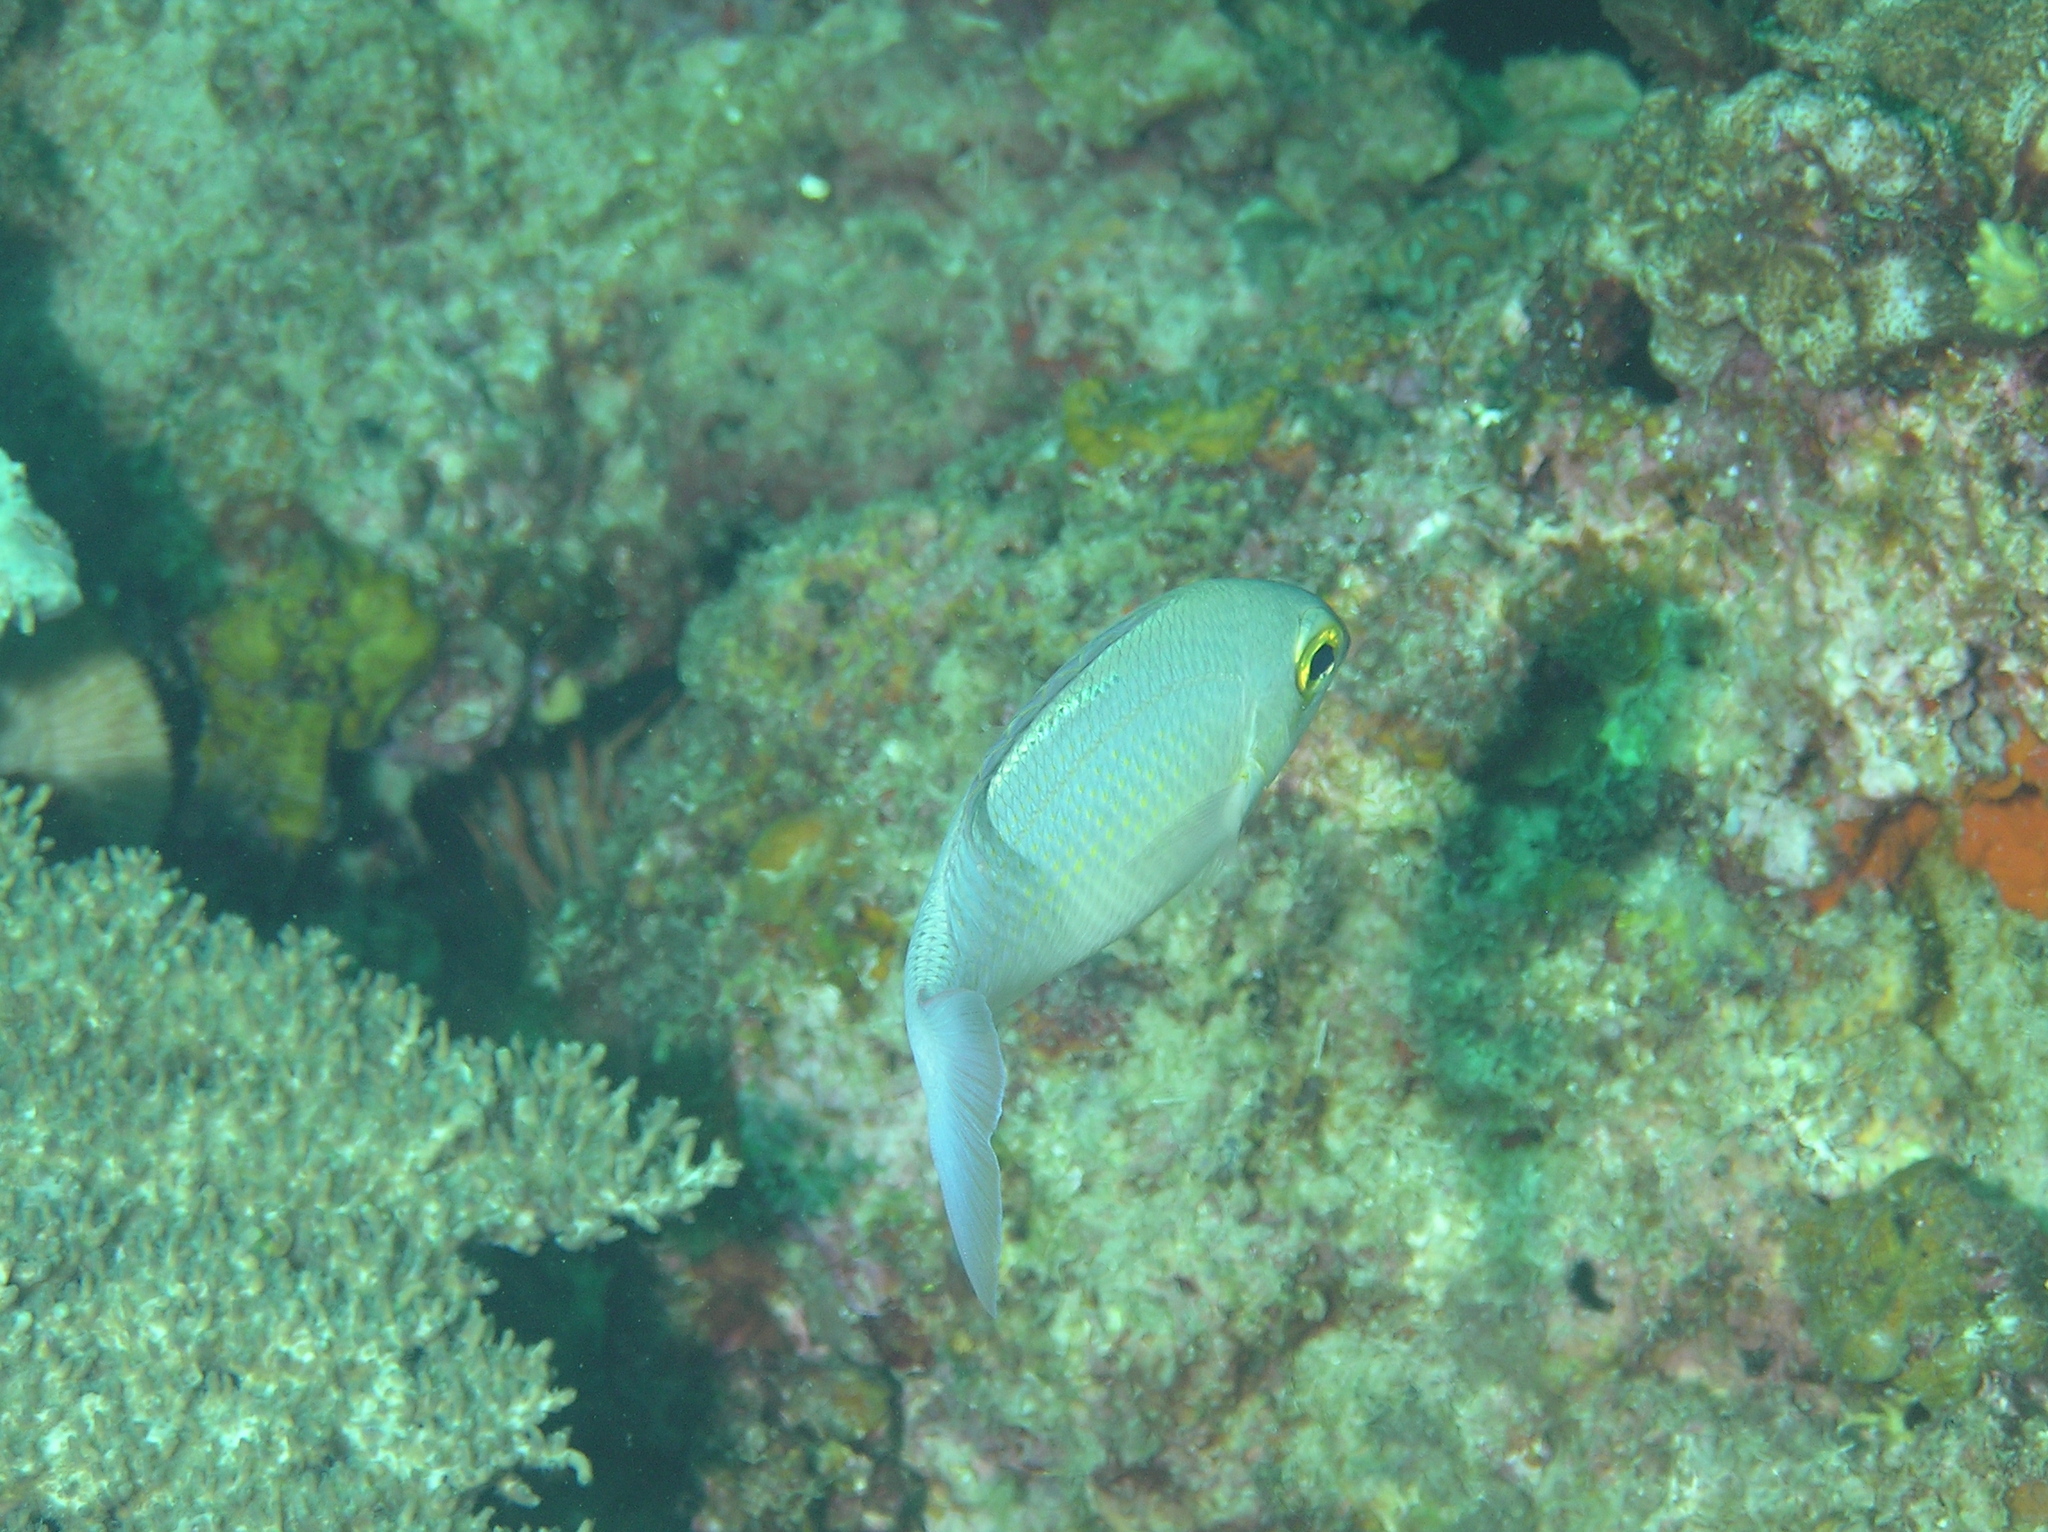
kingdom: Animalia
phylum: Chordata
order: Perciformes
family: Nemipteridae
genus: Scolopsis
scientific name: Scolopsis ciliata
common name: Ciliate spinecheek
